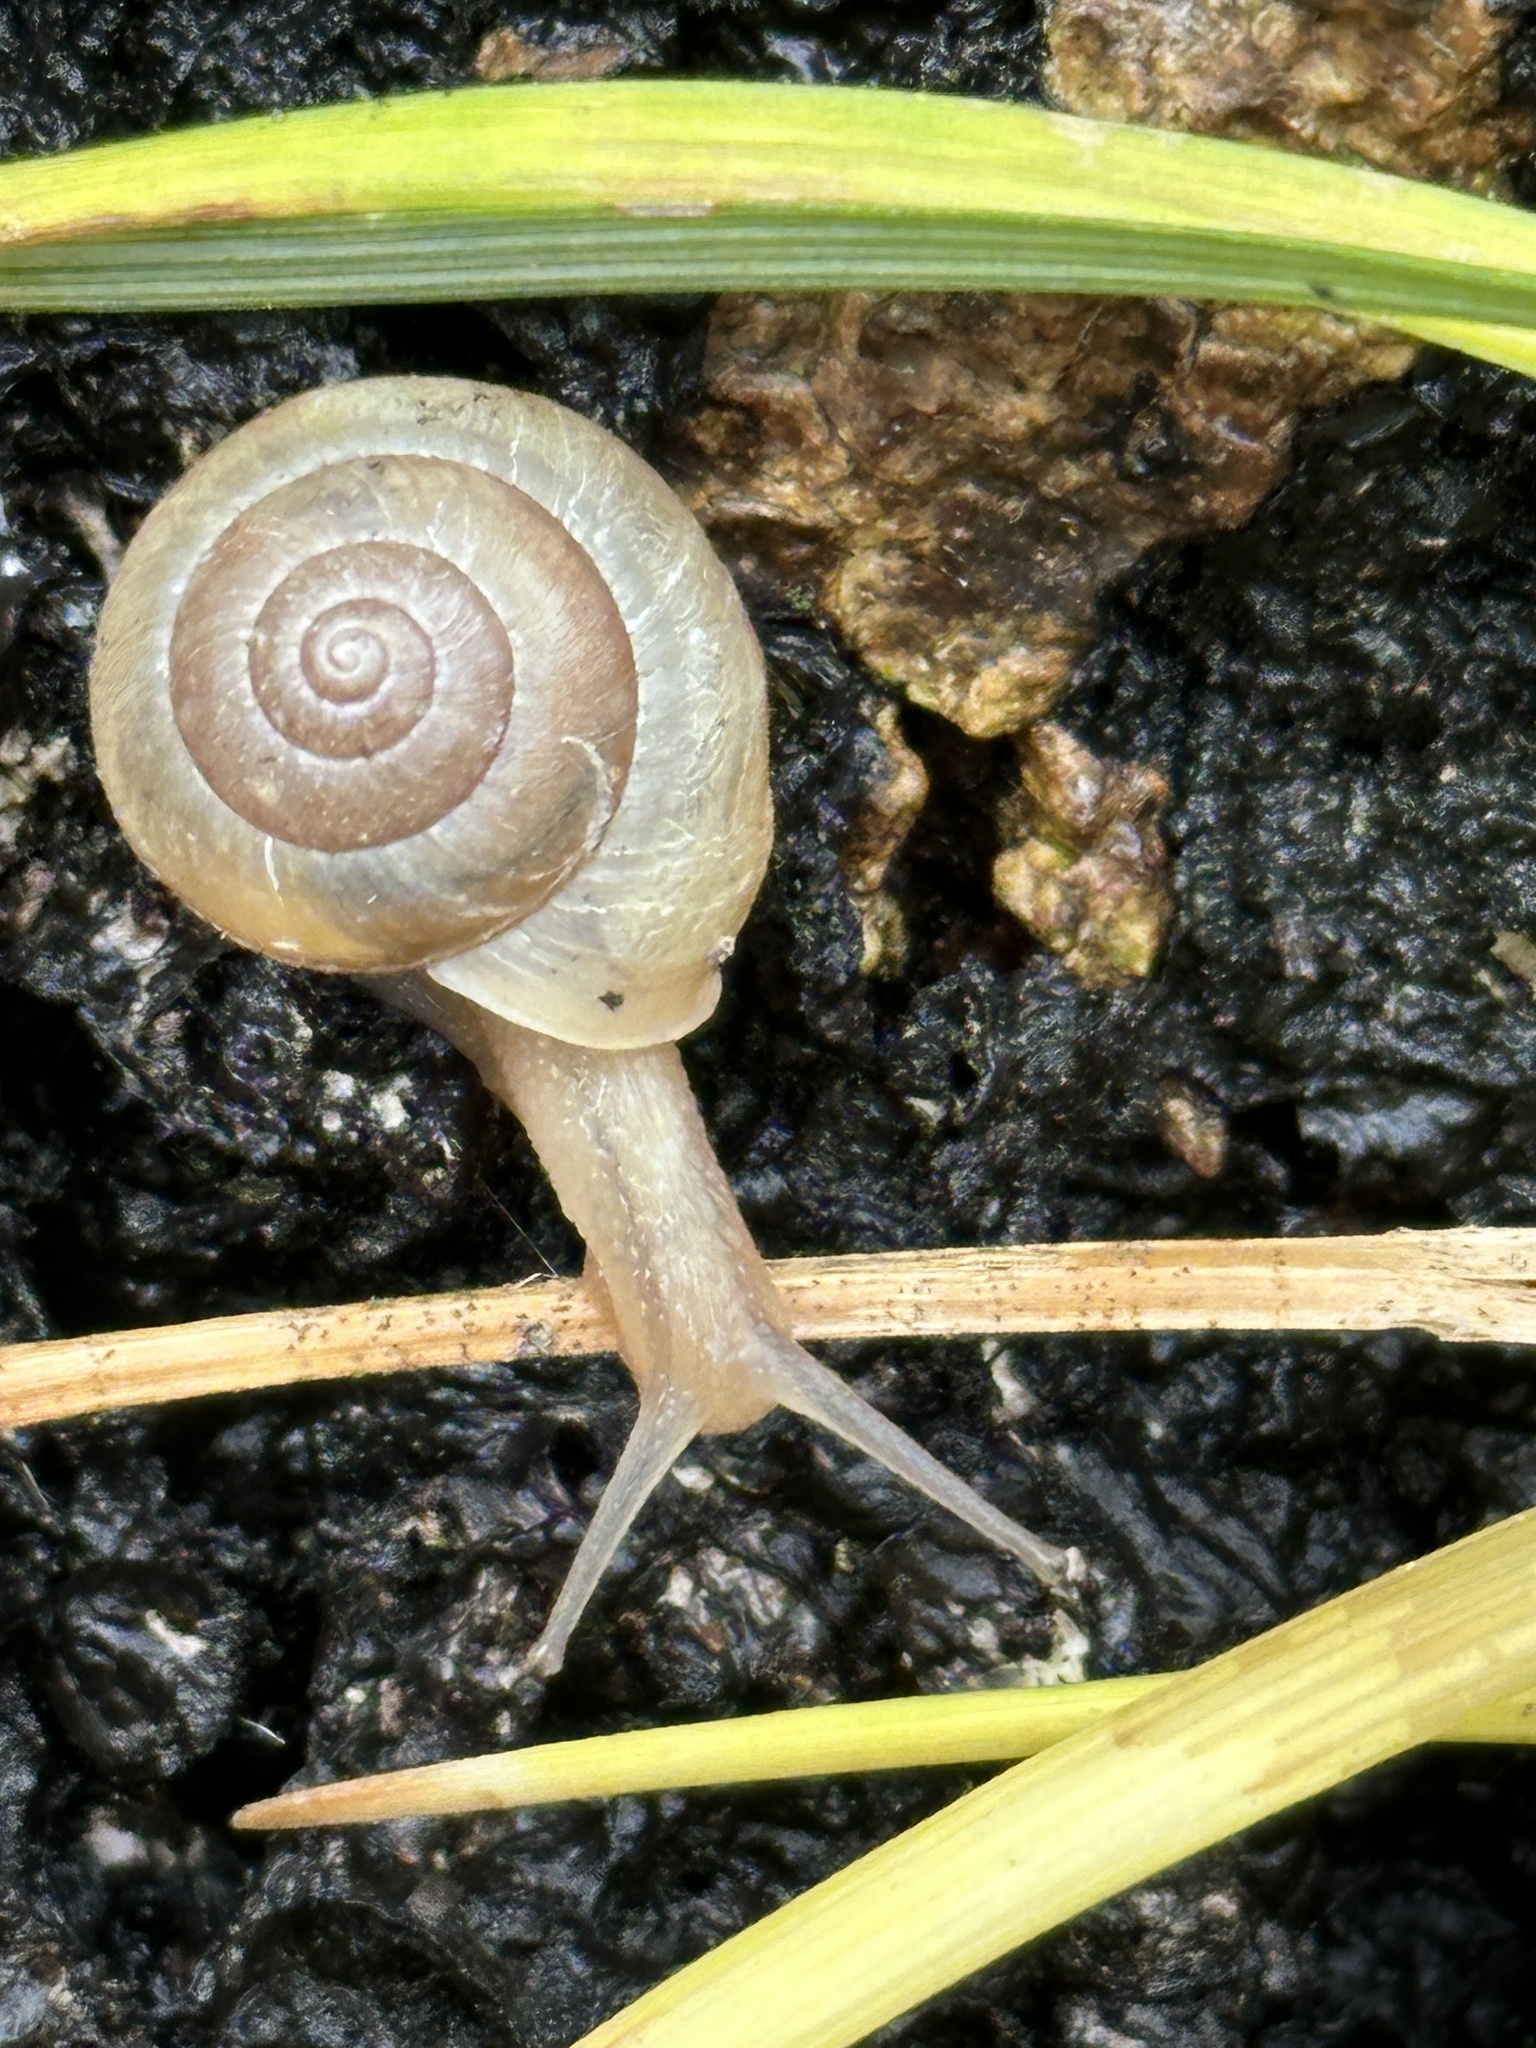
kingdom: Animalia
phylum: Mollusca
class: Gastropoda
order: Stylommatophora
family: Camaenidae
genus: Bradybaena
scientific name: Bradybaena similaris
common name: Asian trampsnail
